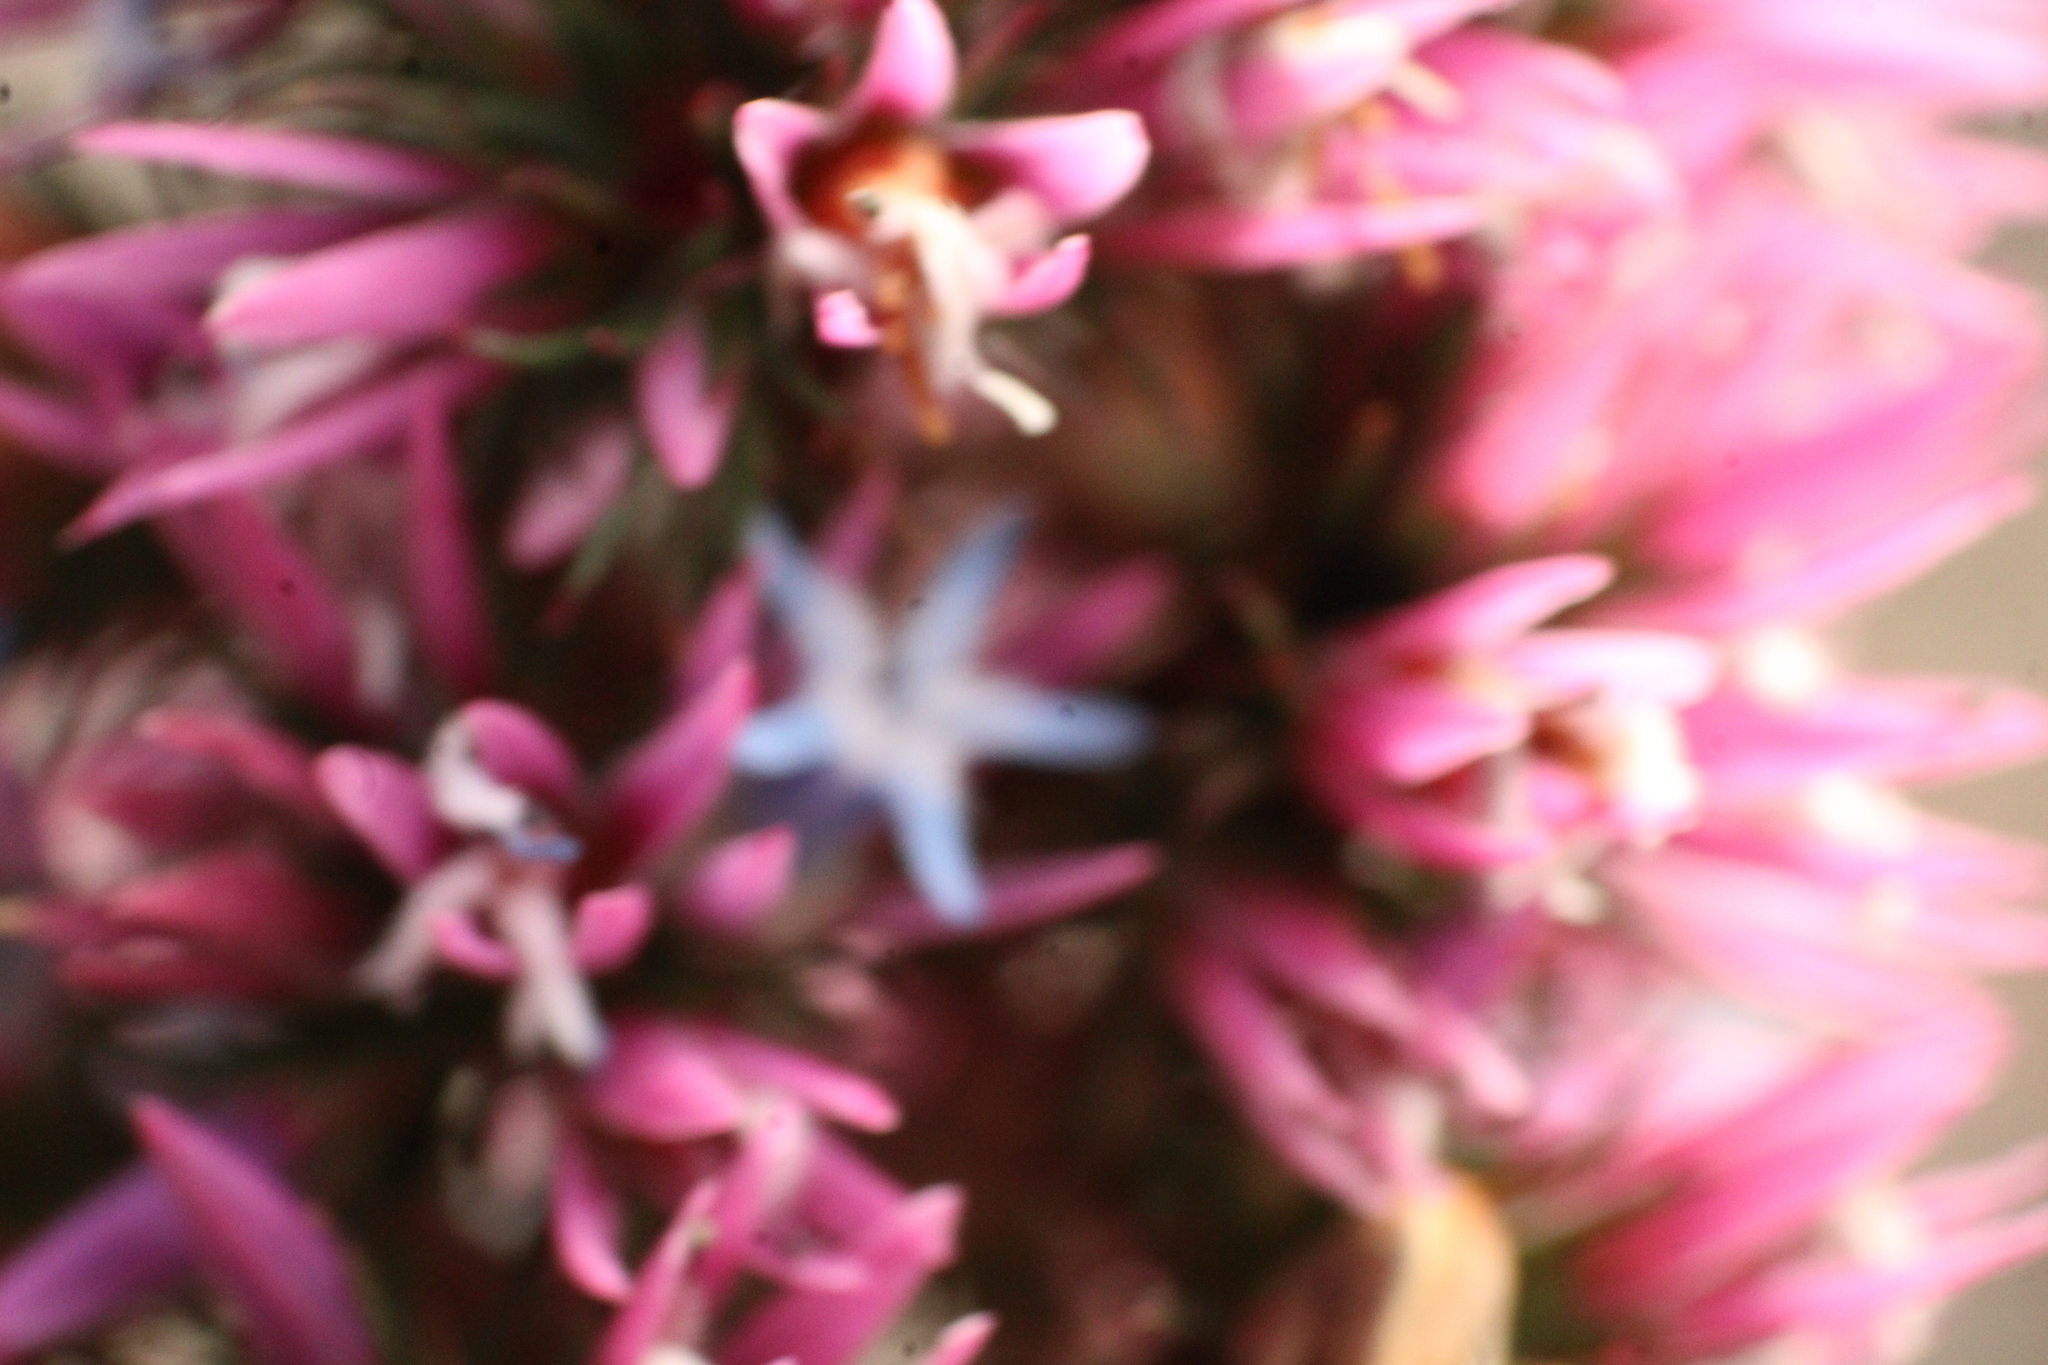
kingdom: Plantae
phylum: Tracheophyta
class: Magnoliopsida
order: Ericales
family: Ericaceae
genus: Andersonia
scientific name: Andersonia caerulea
